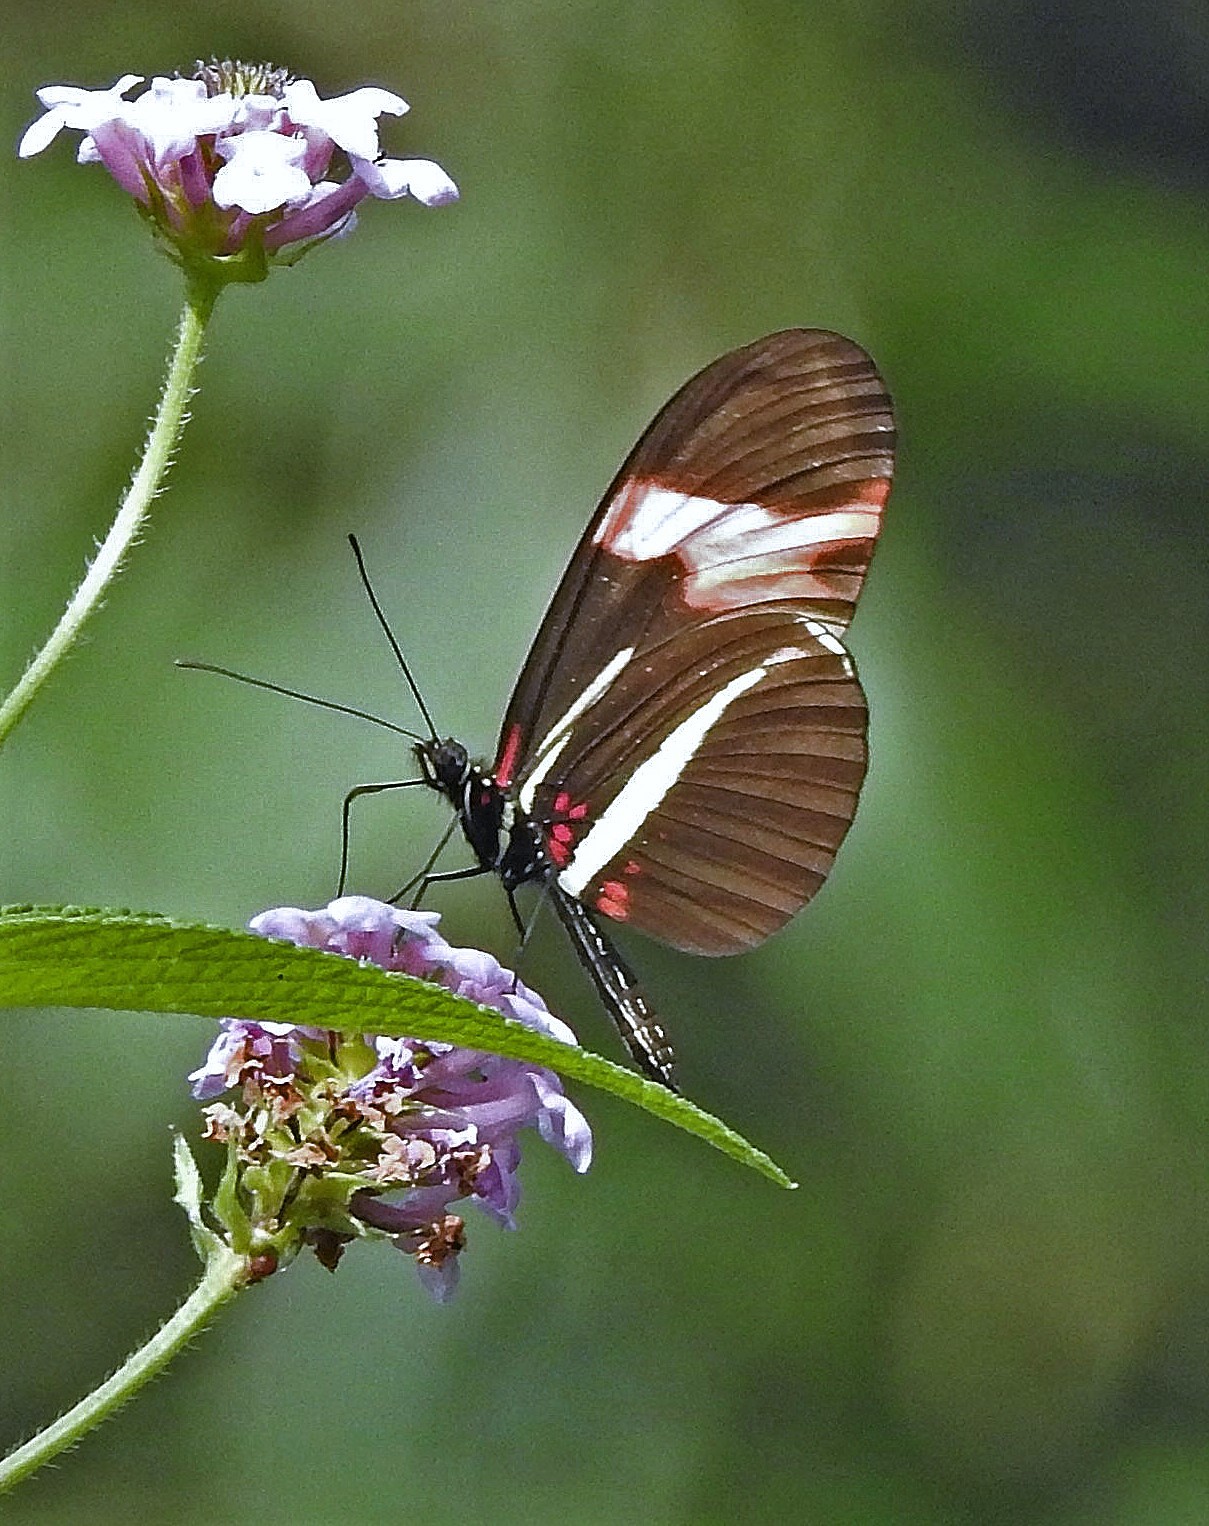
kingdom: Animalia
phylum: Arthropoda
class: Insecta
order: Lepidoptera
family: Nymphalidae
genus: Heliconius
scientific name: Heliconius erato
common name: Common patch longwing
